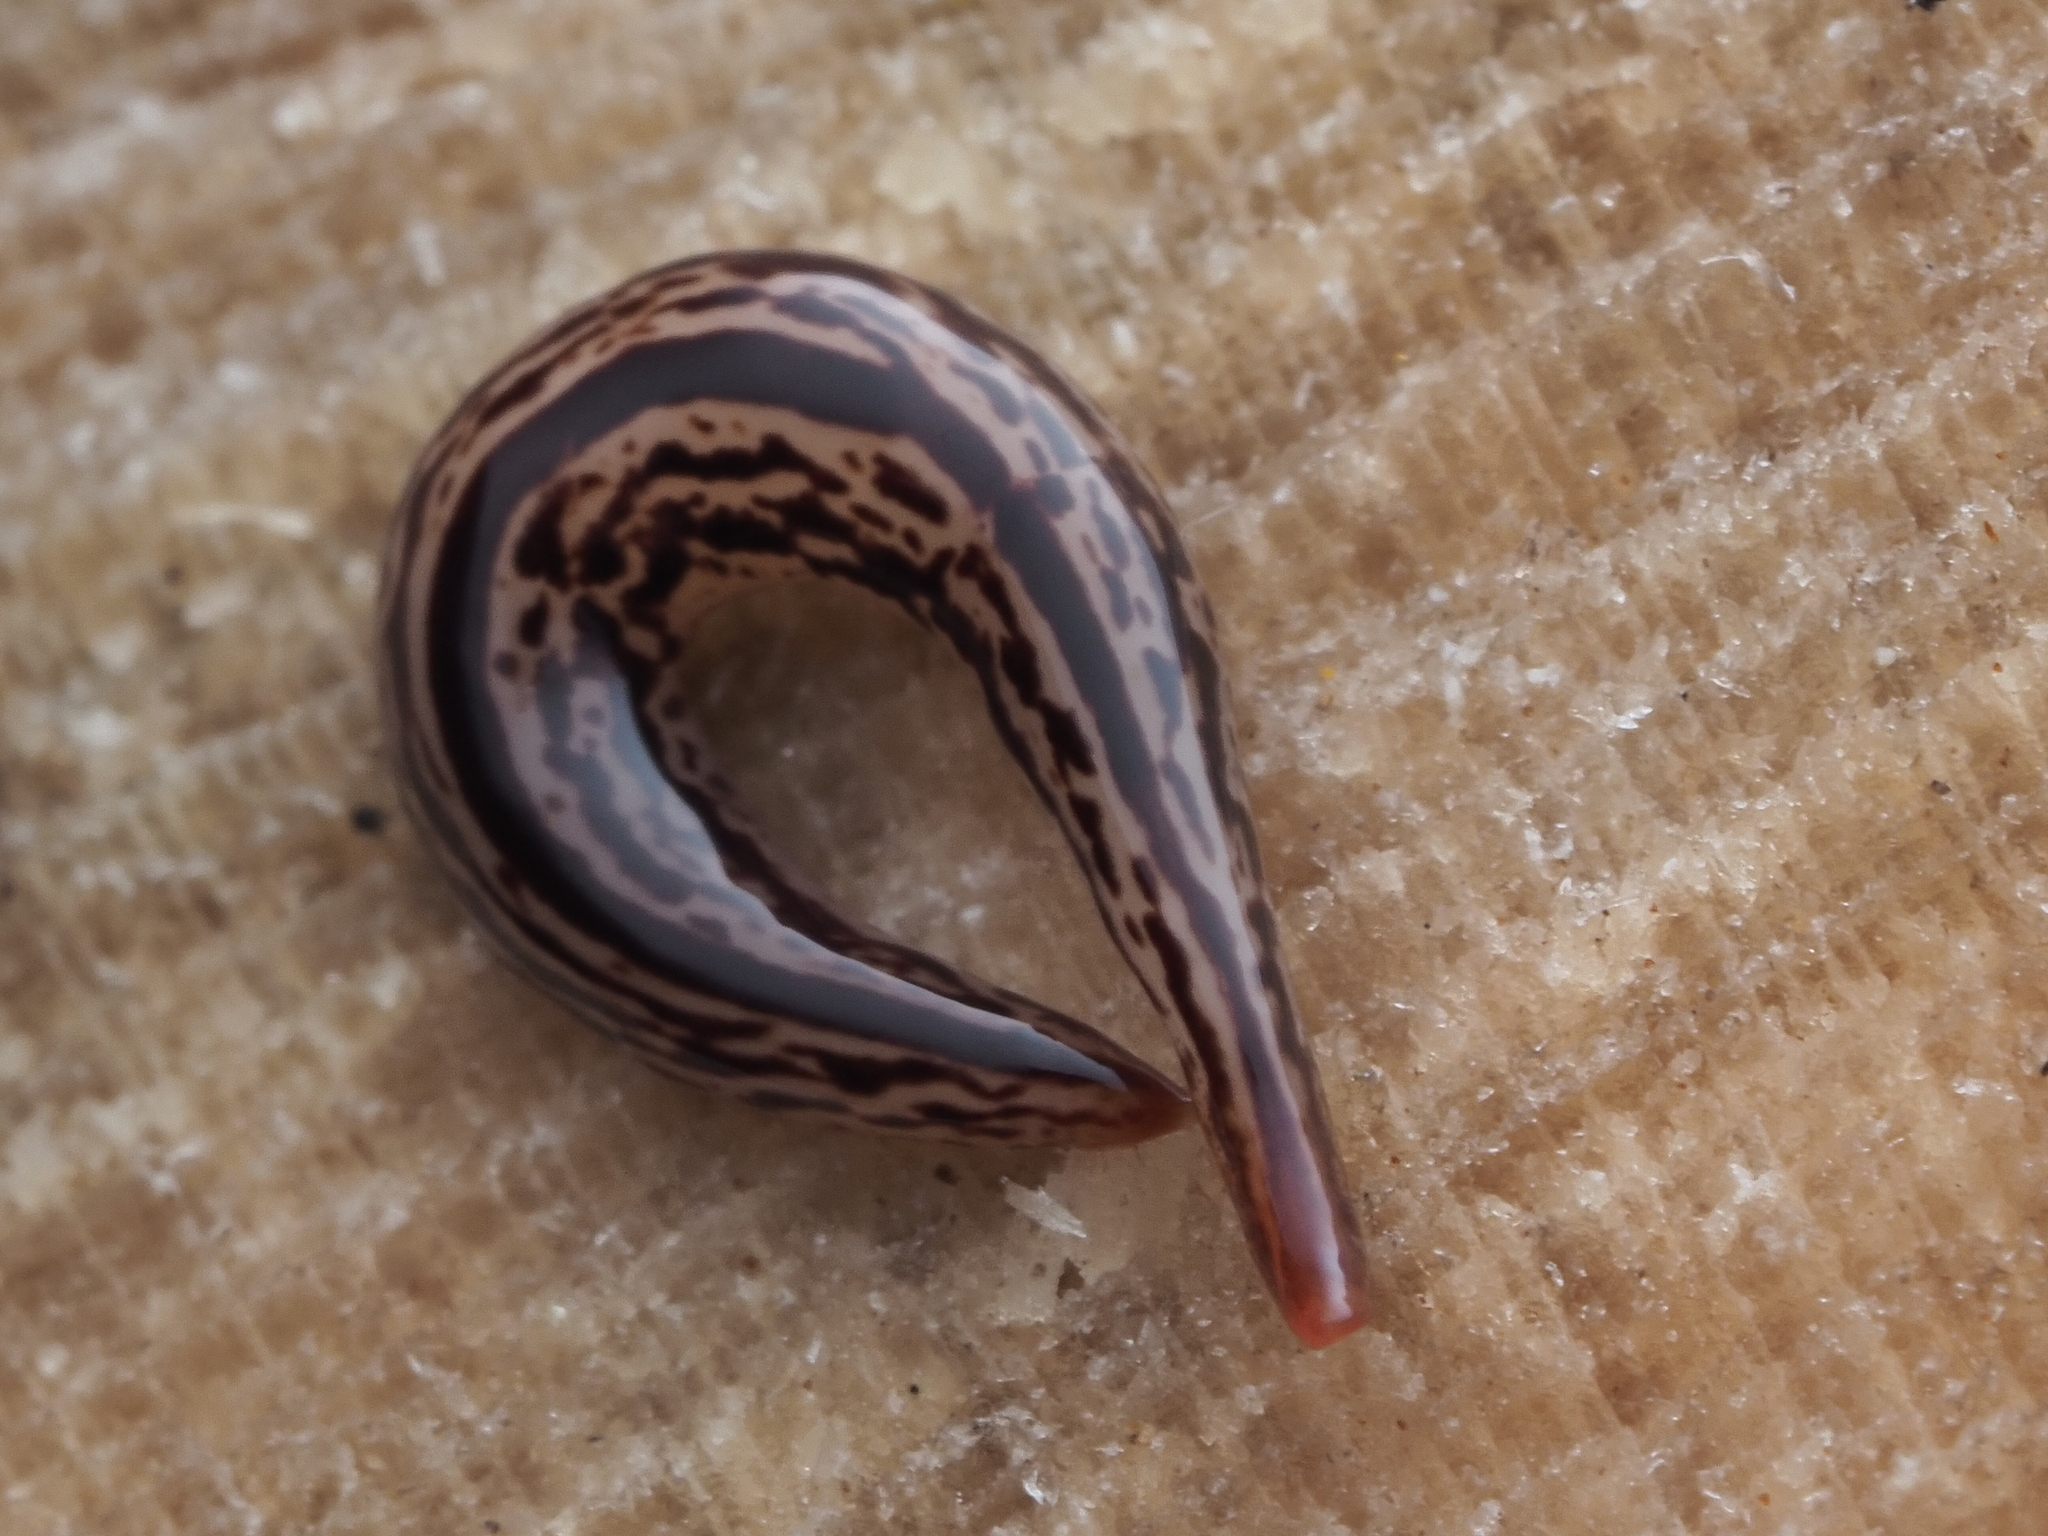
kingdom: Animalia
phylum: Platyhelminthes
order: Tricladida
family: Geoplanidae
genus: Artioposthia
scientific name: Artioposthia exulans
